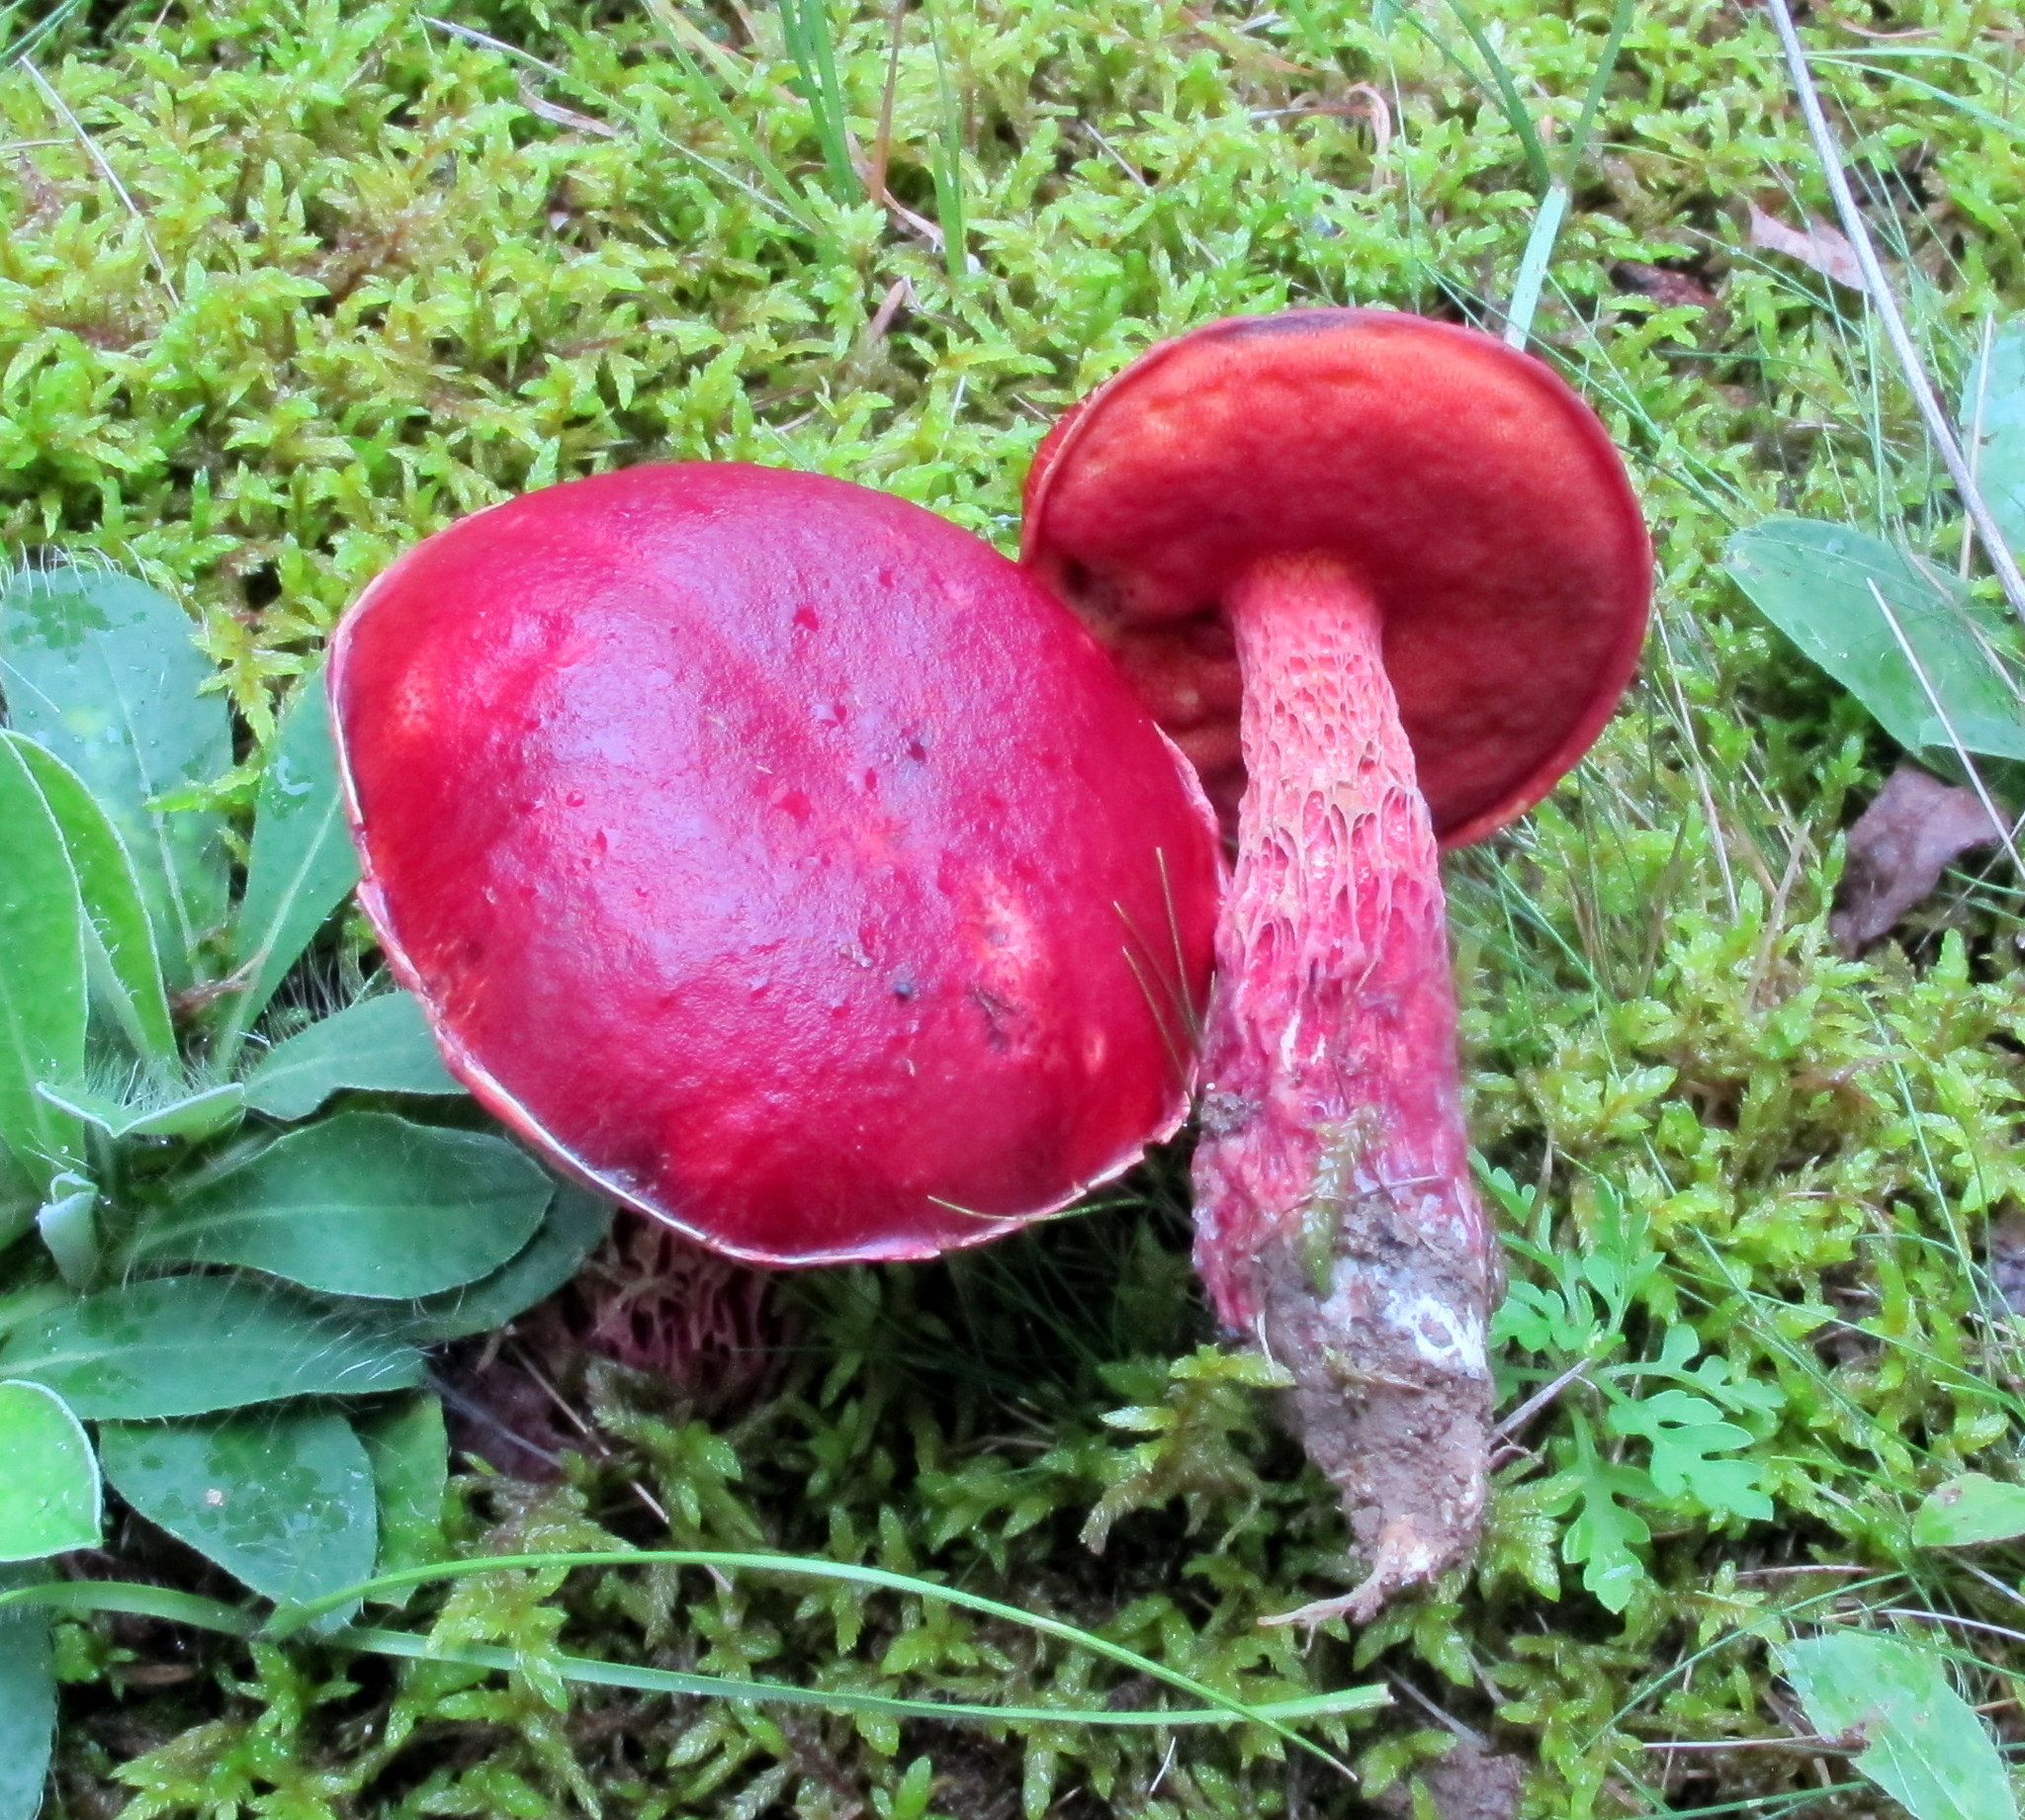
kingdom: Fungi
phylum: Basidiomycota
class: Agaricomycetes
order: Boletales
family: Boletaceae
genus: Butyriboletus
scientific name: Butyriboletus frostii
